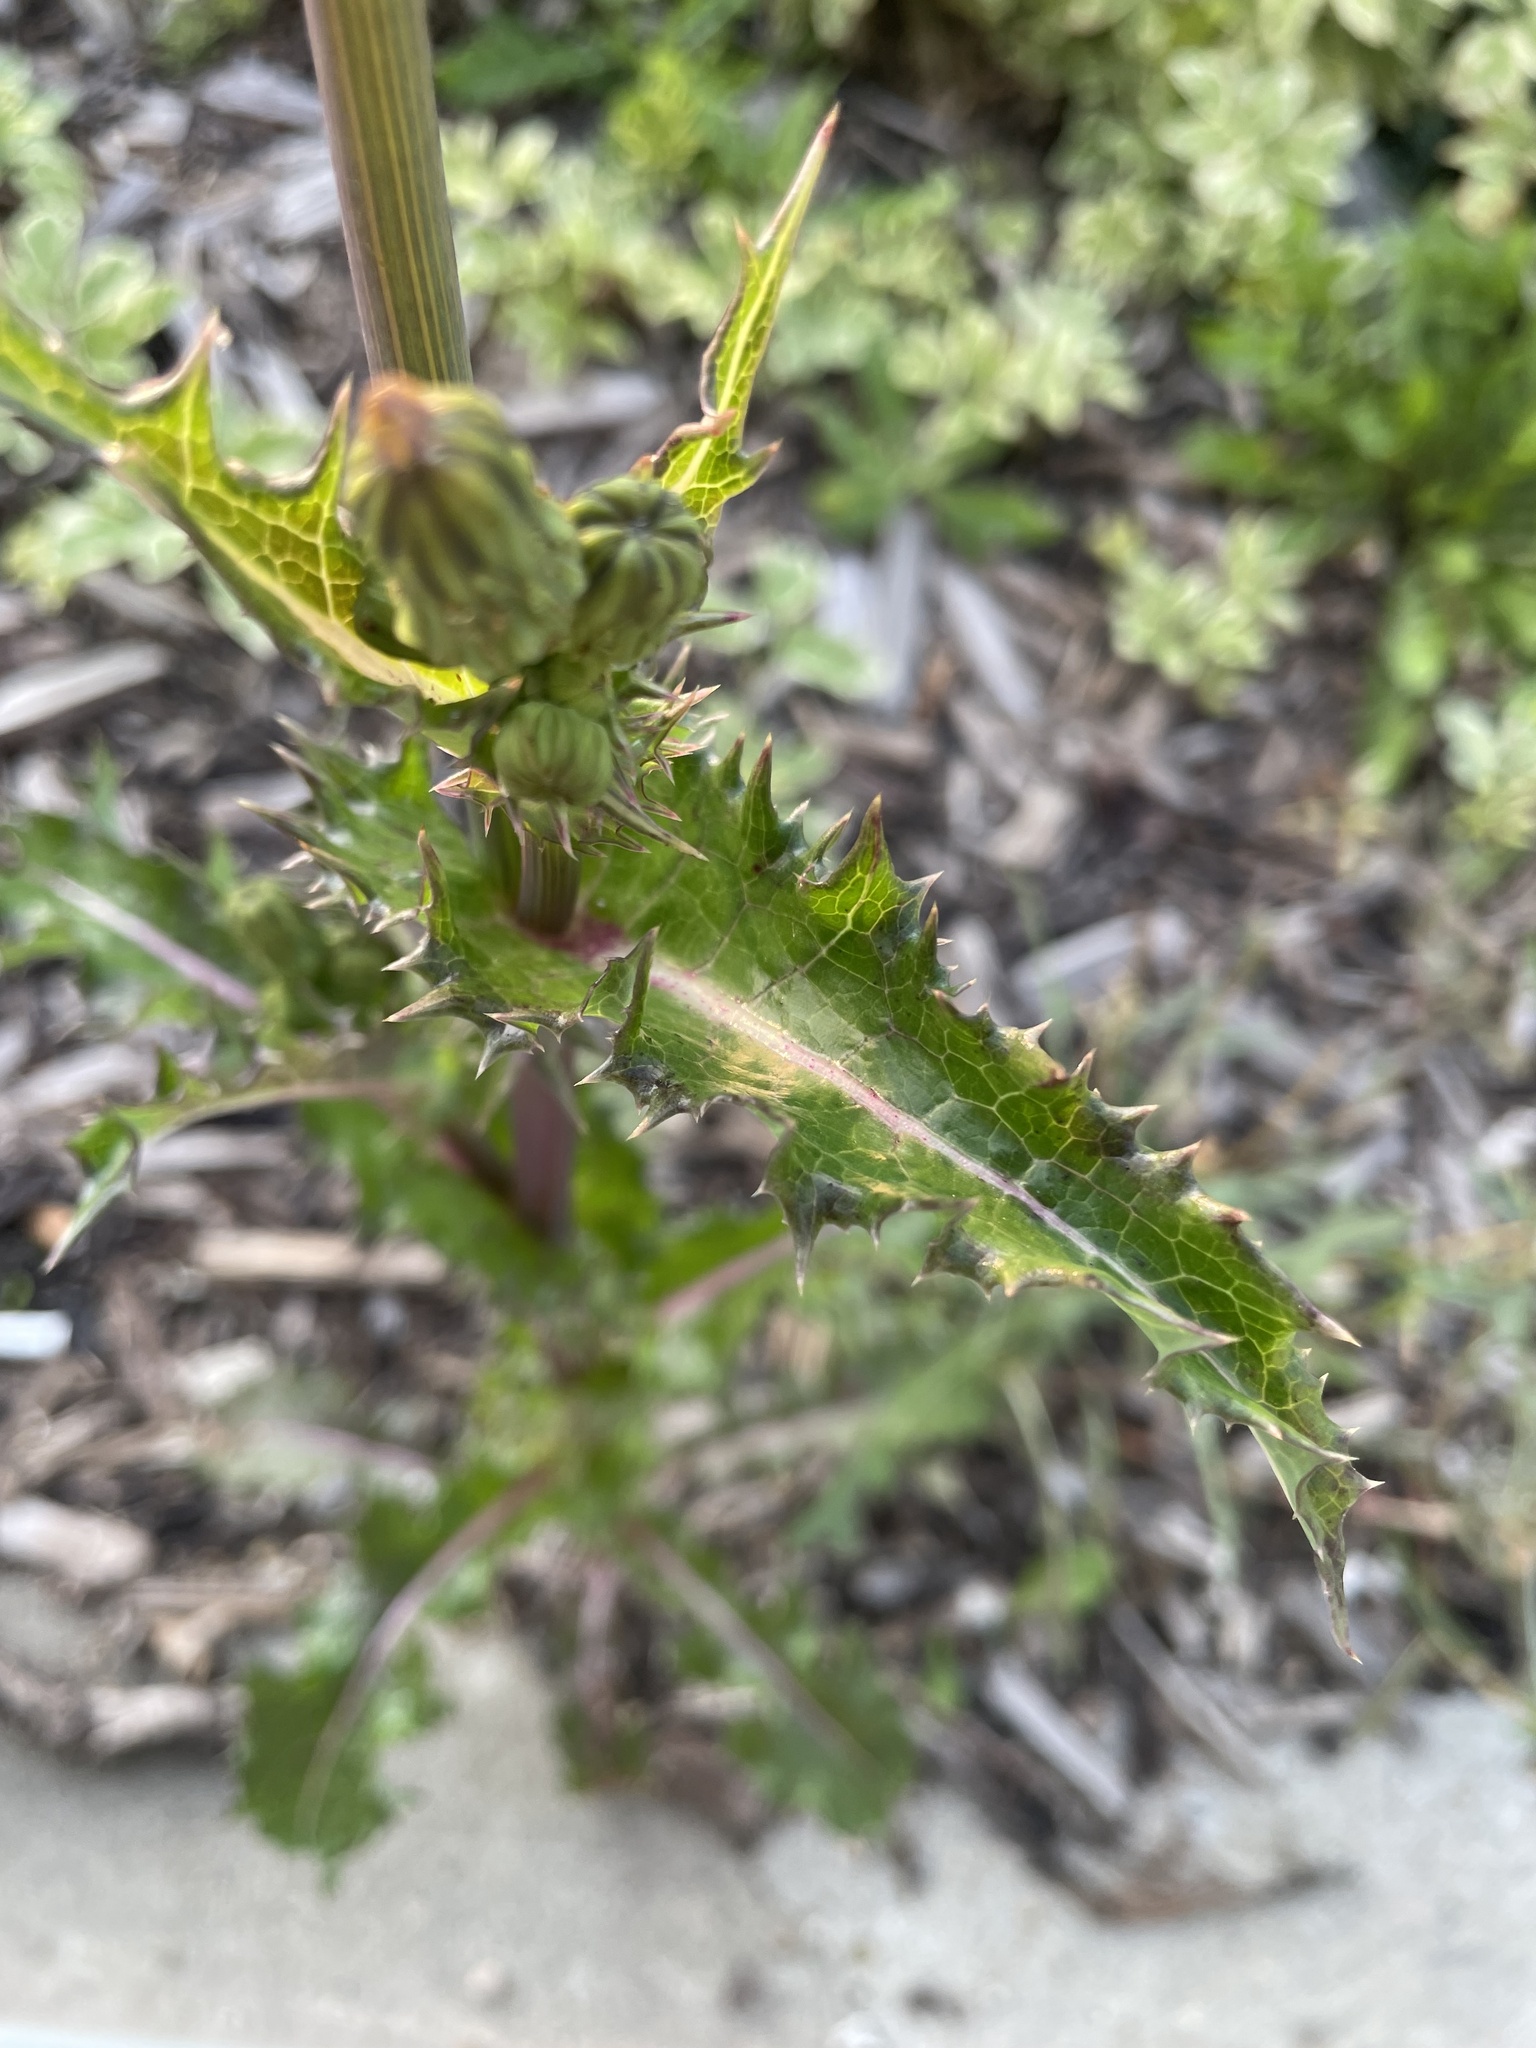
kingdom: Plantae
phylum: Tracheophyta
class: Magnoliopsida
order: Asterales
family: Asteraceae
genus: Sonchus
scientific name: Sonchus asper
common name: Prickly sow-thistle
